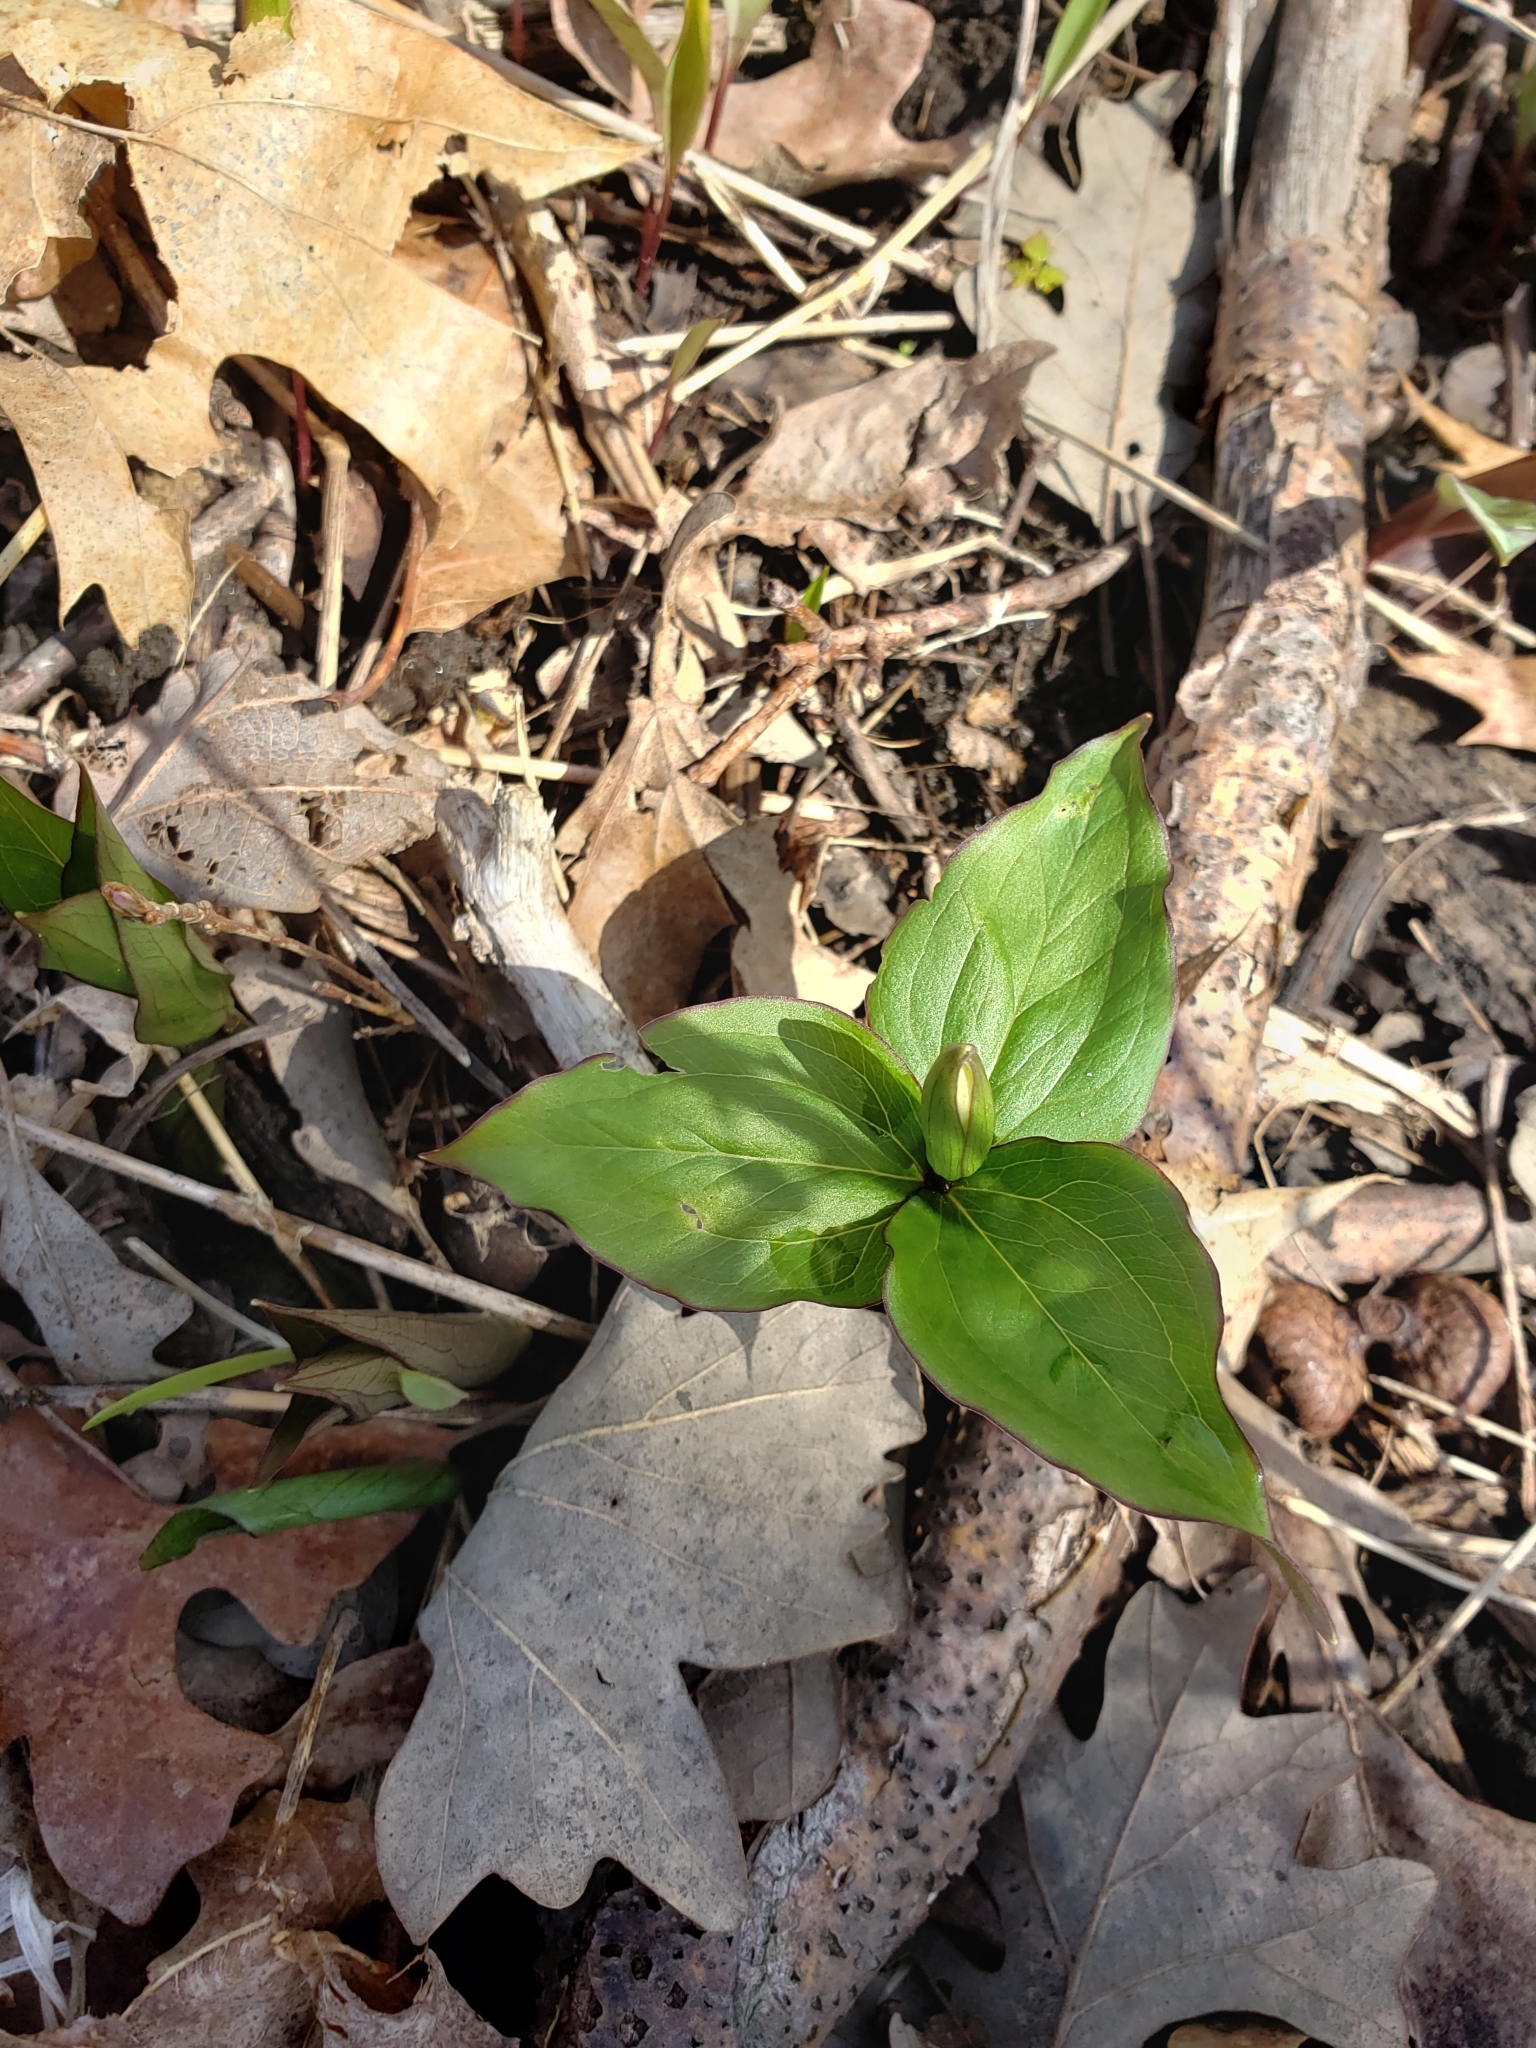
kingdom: Plantae
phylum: Tracheophyta
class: Liliopsida
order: Liliales
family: Melanthiaceae
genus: Trillium
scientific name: Trillium grandiflorum
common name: Great white trillium
